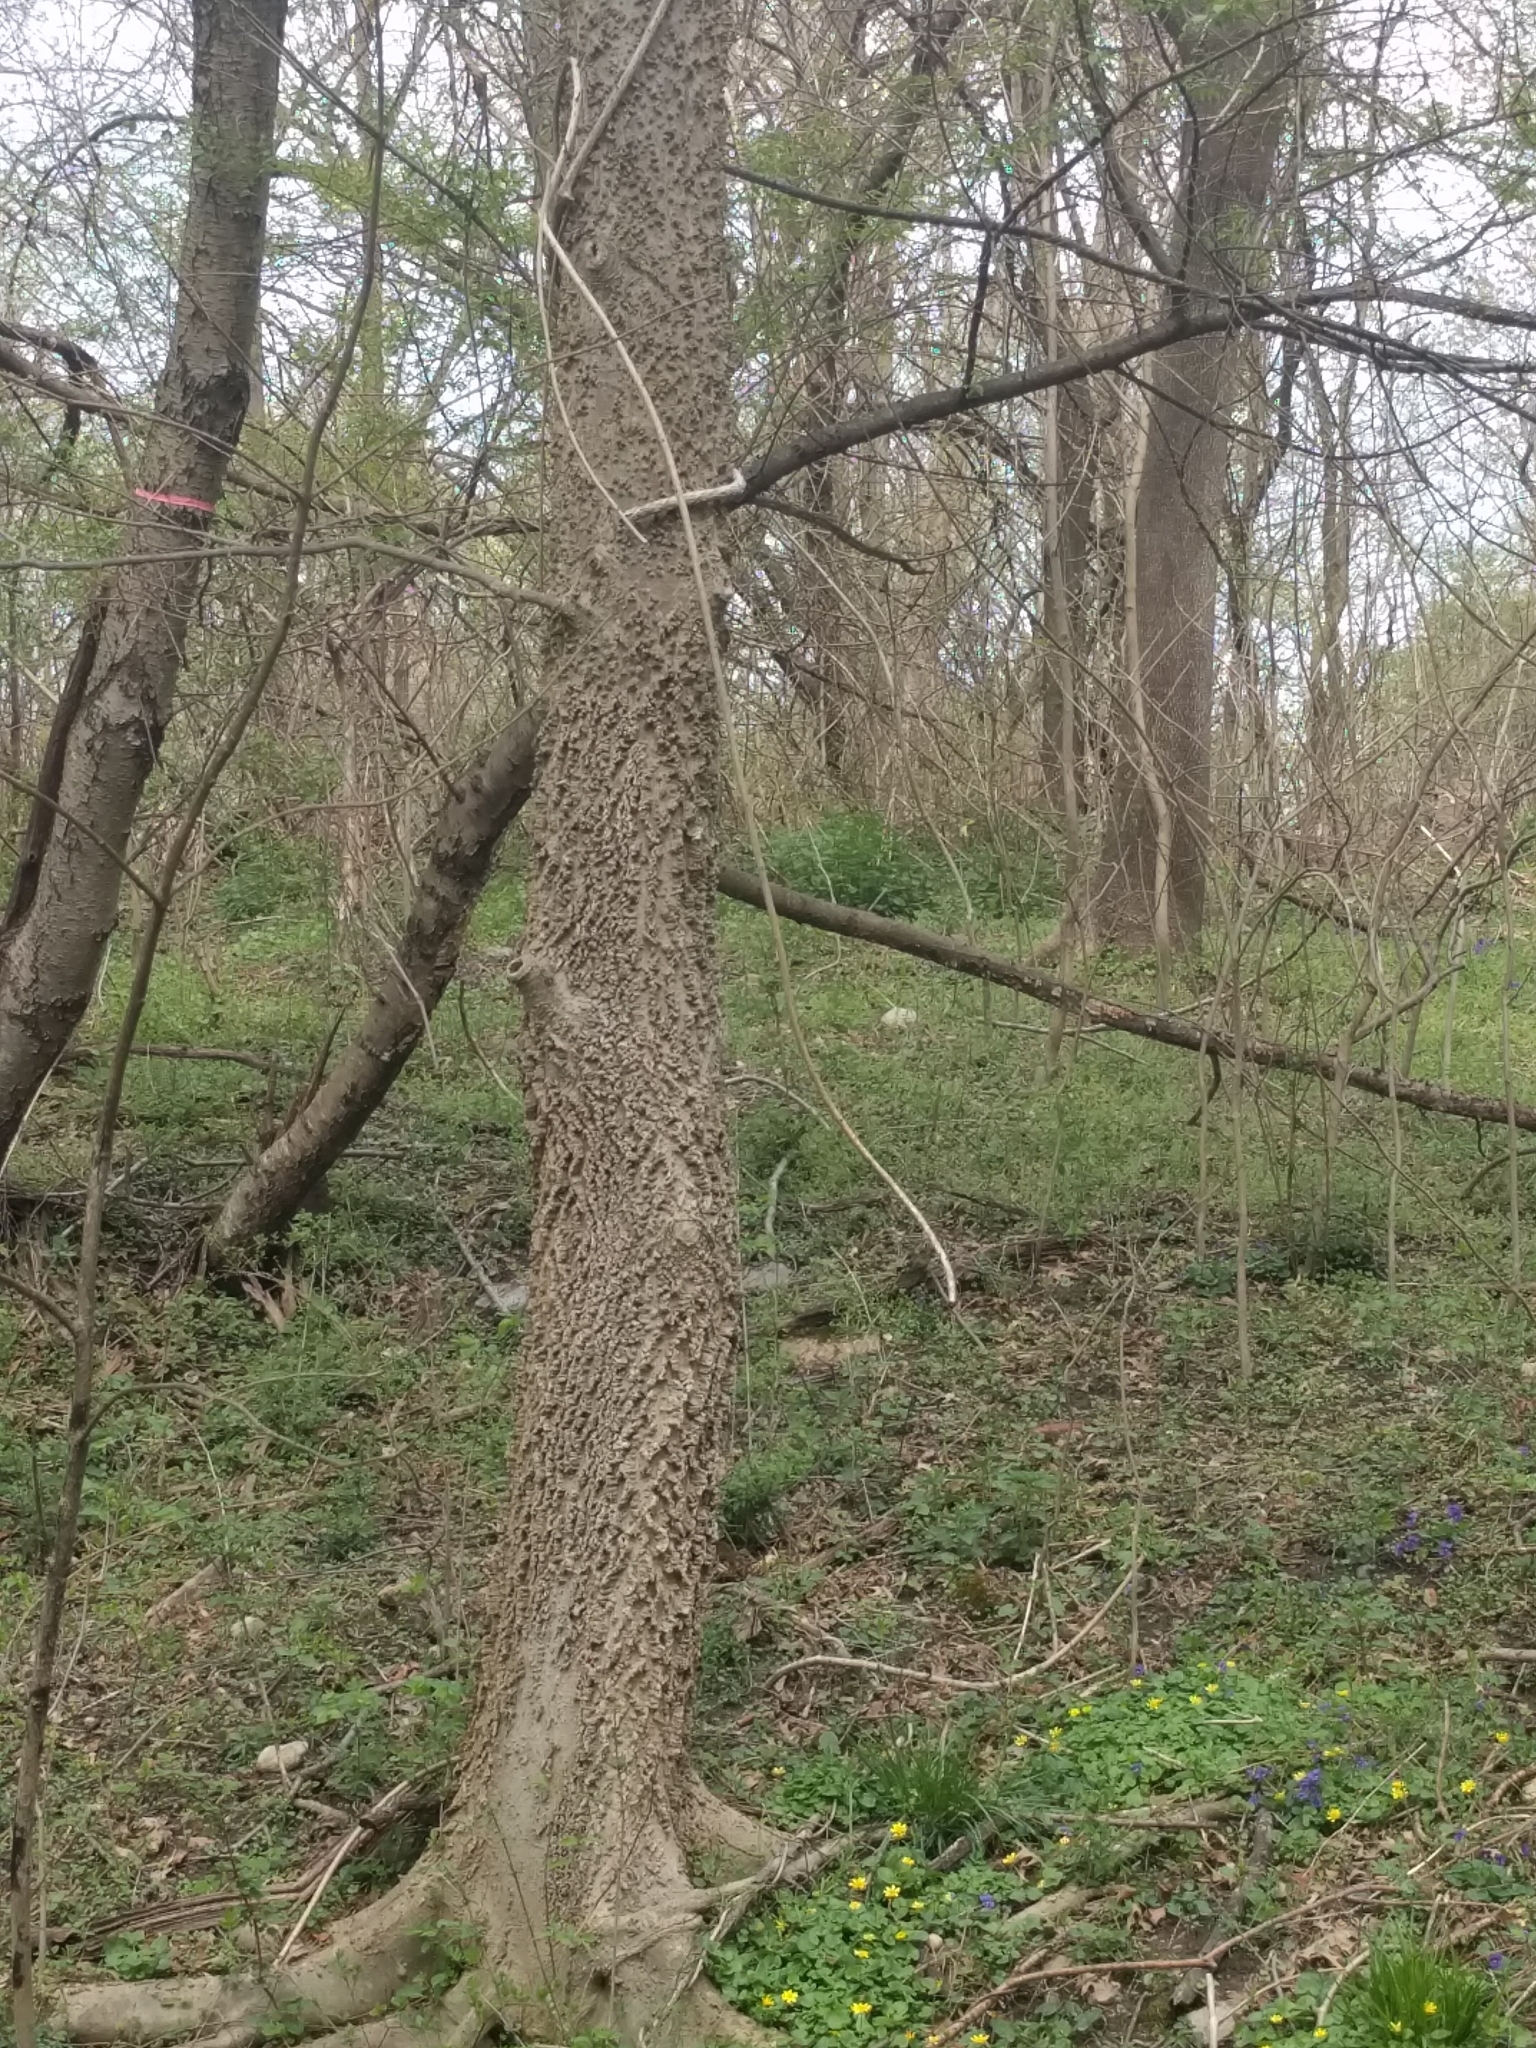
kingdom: Plantae
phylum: Tracheophyta
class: Magnoliopsida
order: Rosales
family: Cannabaceae
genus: Celtis
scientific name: Celtis occidentalis
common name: Common hackberry
